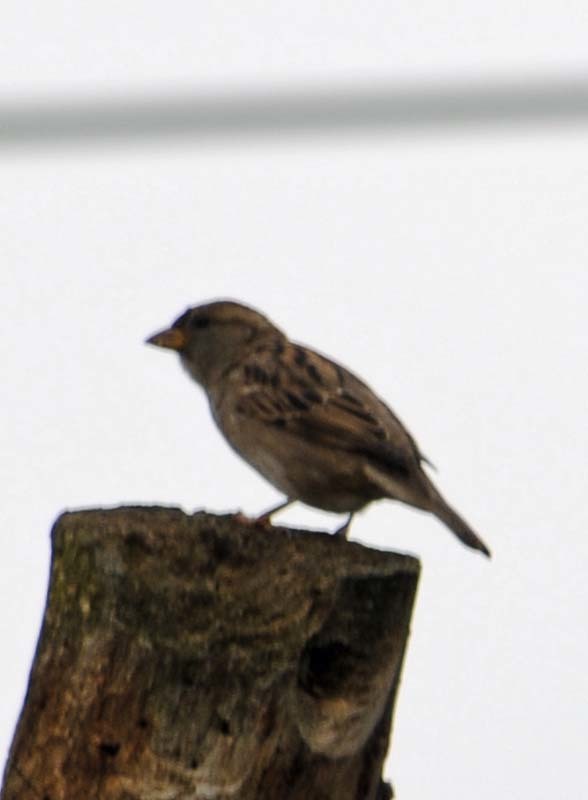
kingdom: Animalia
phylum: Chordata
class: Aves
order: Passeriformes
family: Passeridae
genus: Passer
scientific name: Passer domesticus
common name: House sparrow
